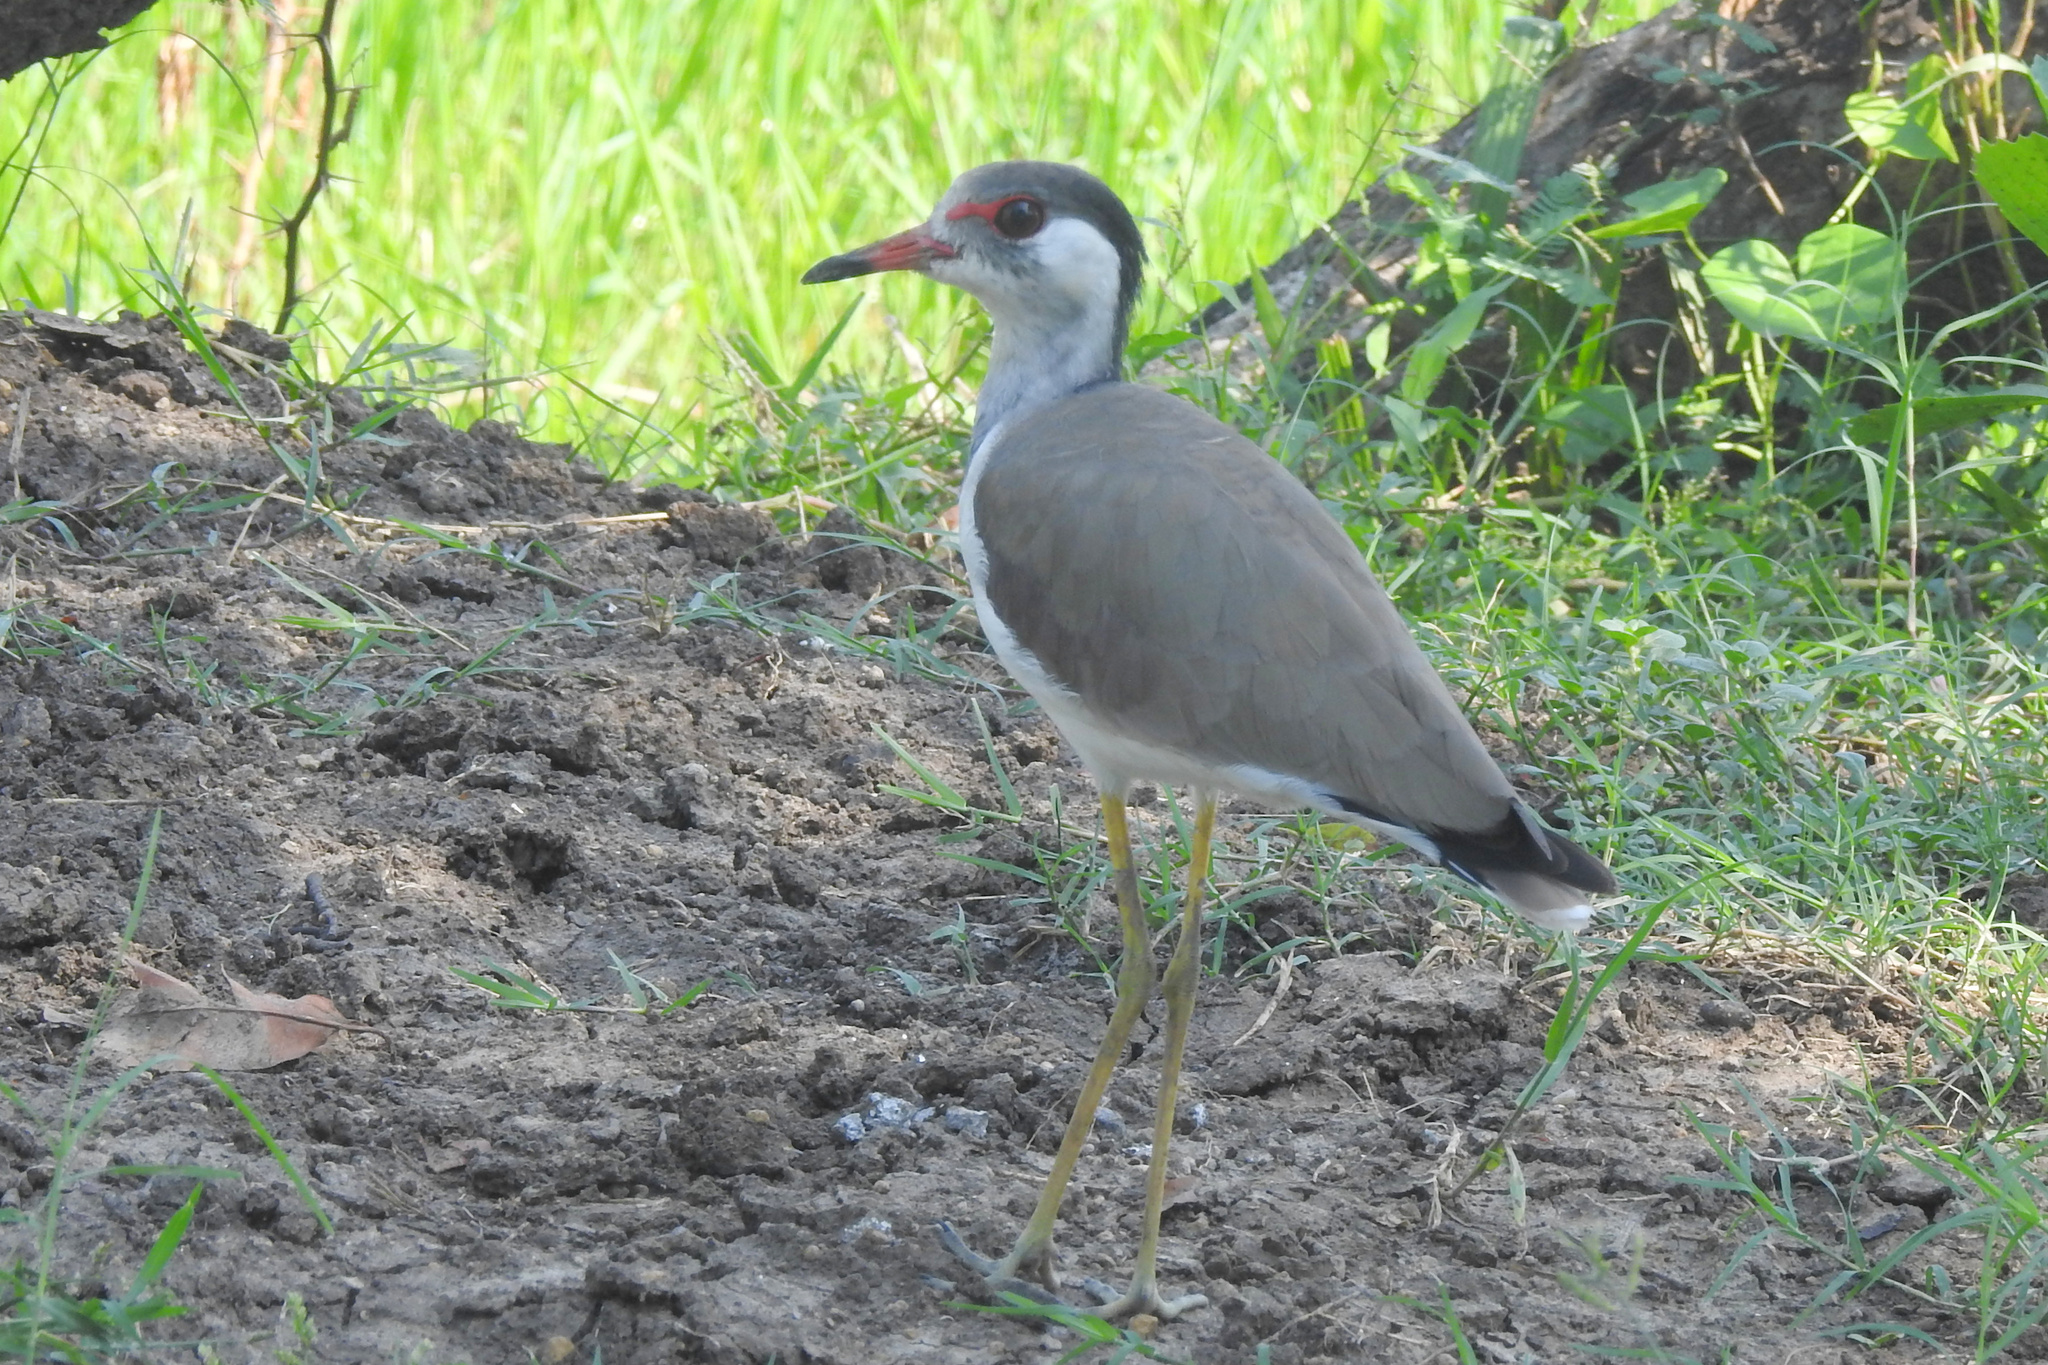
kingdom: Animalia
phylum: Chordata
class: Aves
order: Charadriiformes
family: Charadriidae
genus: Vanellus
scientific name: Vanellus indicus
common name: Red-wattled lapwing
